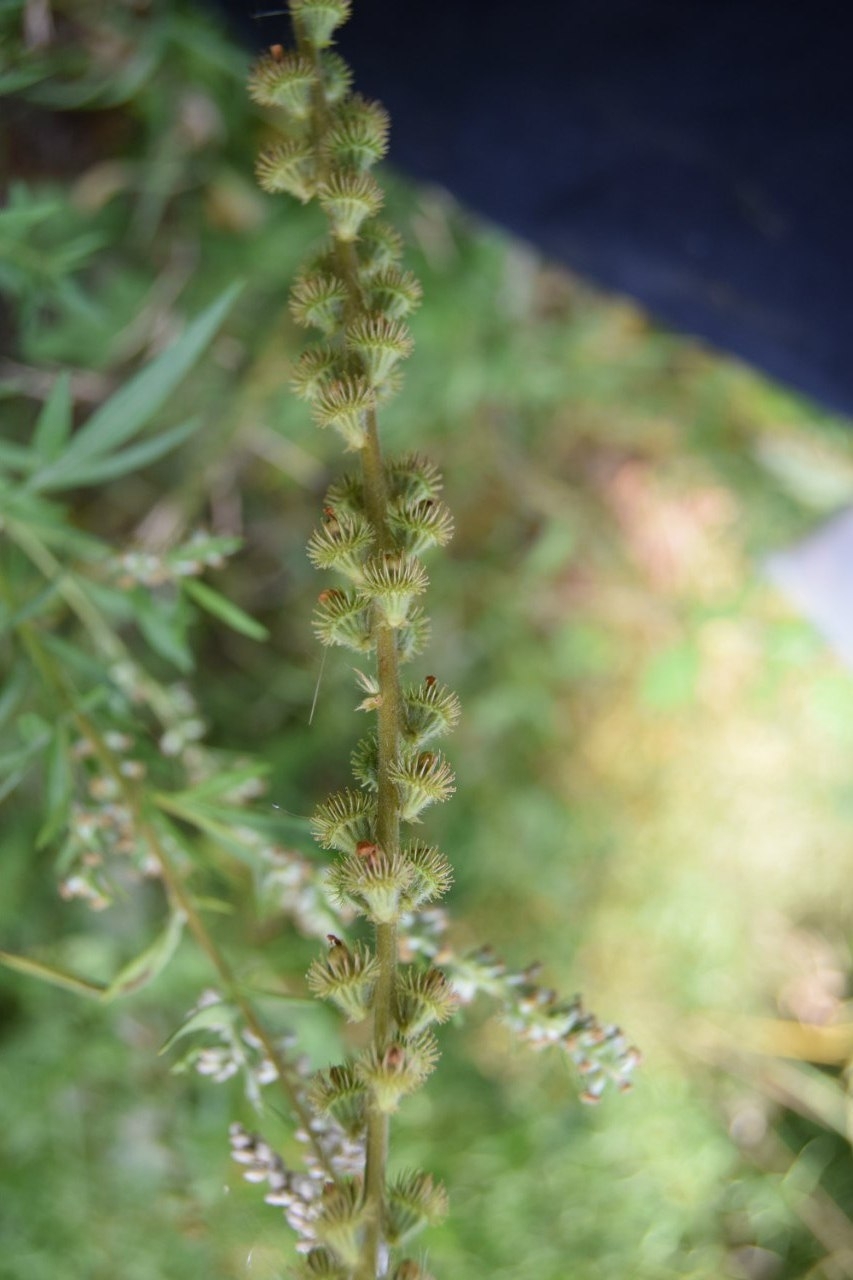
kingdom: Plantae
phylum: Tracheophyta
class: Magnoliopsida
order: Rosales
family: Rosaceae
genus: Agrimonia
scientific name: Agrimonia eupatoria
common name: Agrimony
